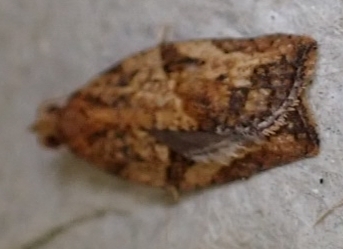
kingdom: Animalia
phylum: Arthropoda
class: Insecta
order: Lepidoptera
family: Tortricidae
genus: Epiphyas
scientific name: Epiphyas postvittana
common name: Light brown apple moth
